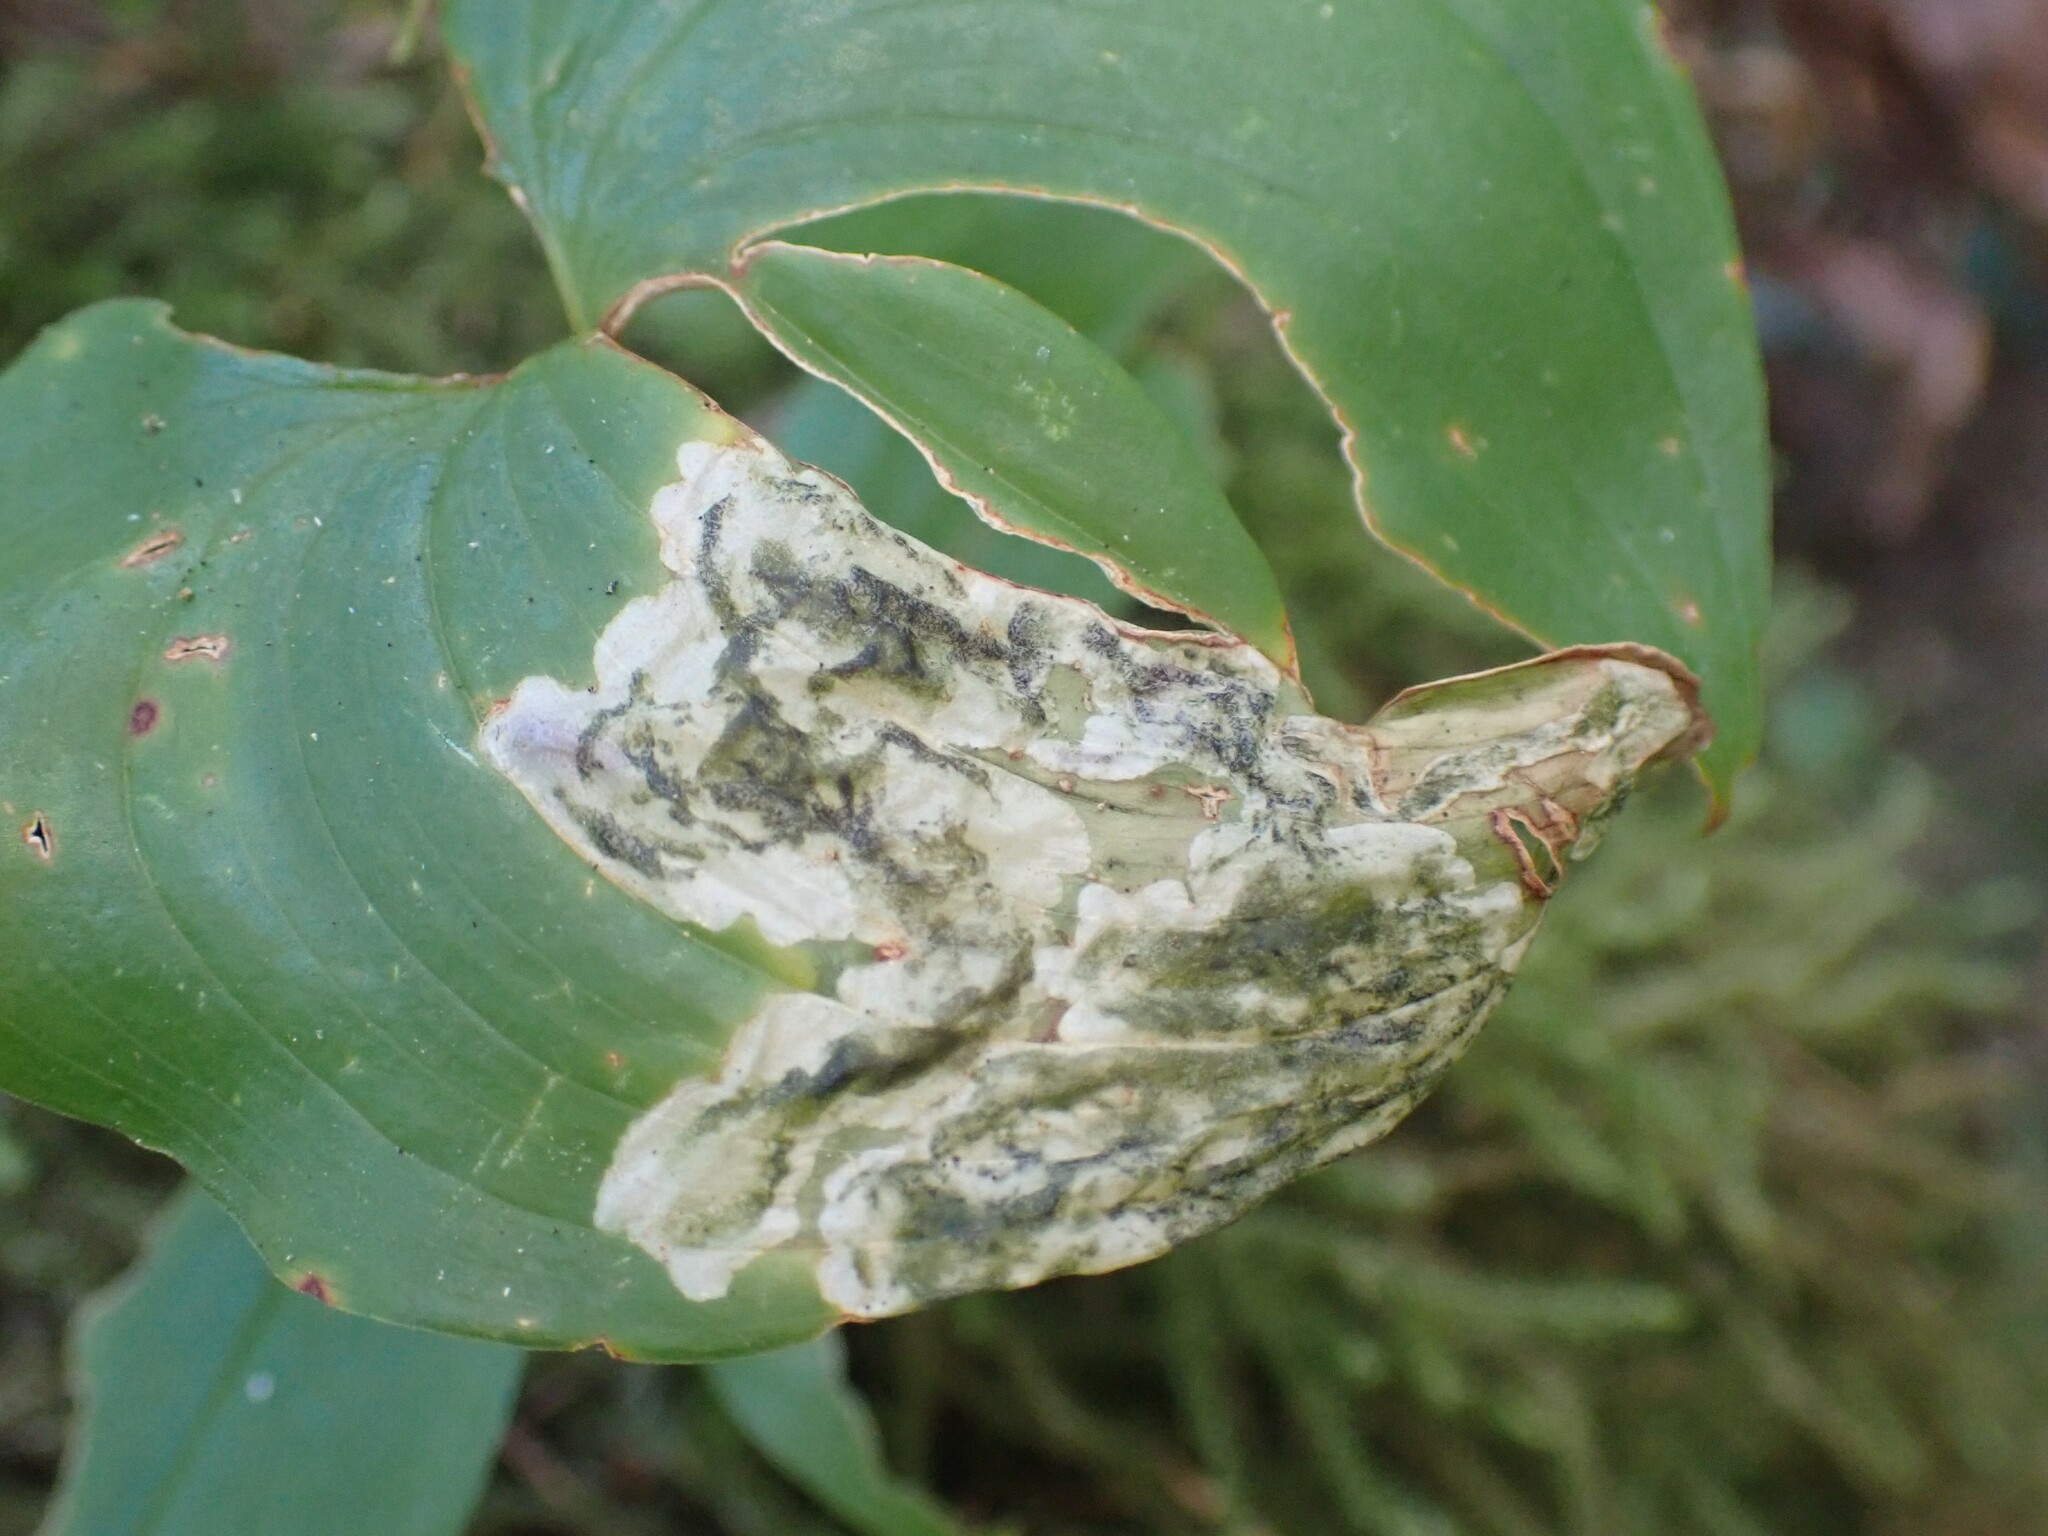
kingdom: Animalia
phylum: Arthropoda
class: Insecta
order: Diptera
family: Scathophagidae
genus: Leptopa
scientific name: Leptopa
